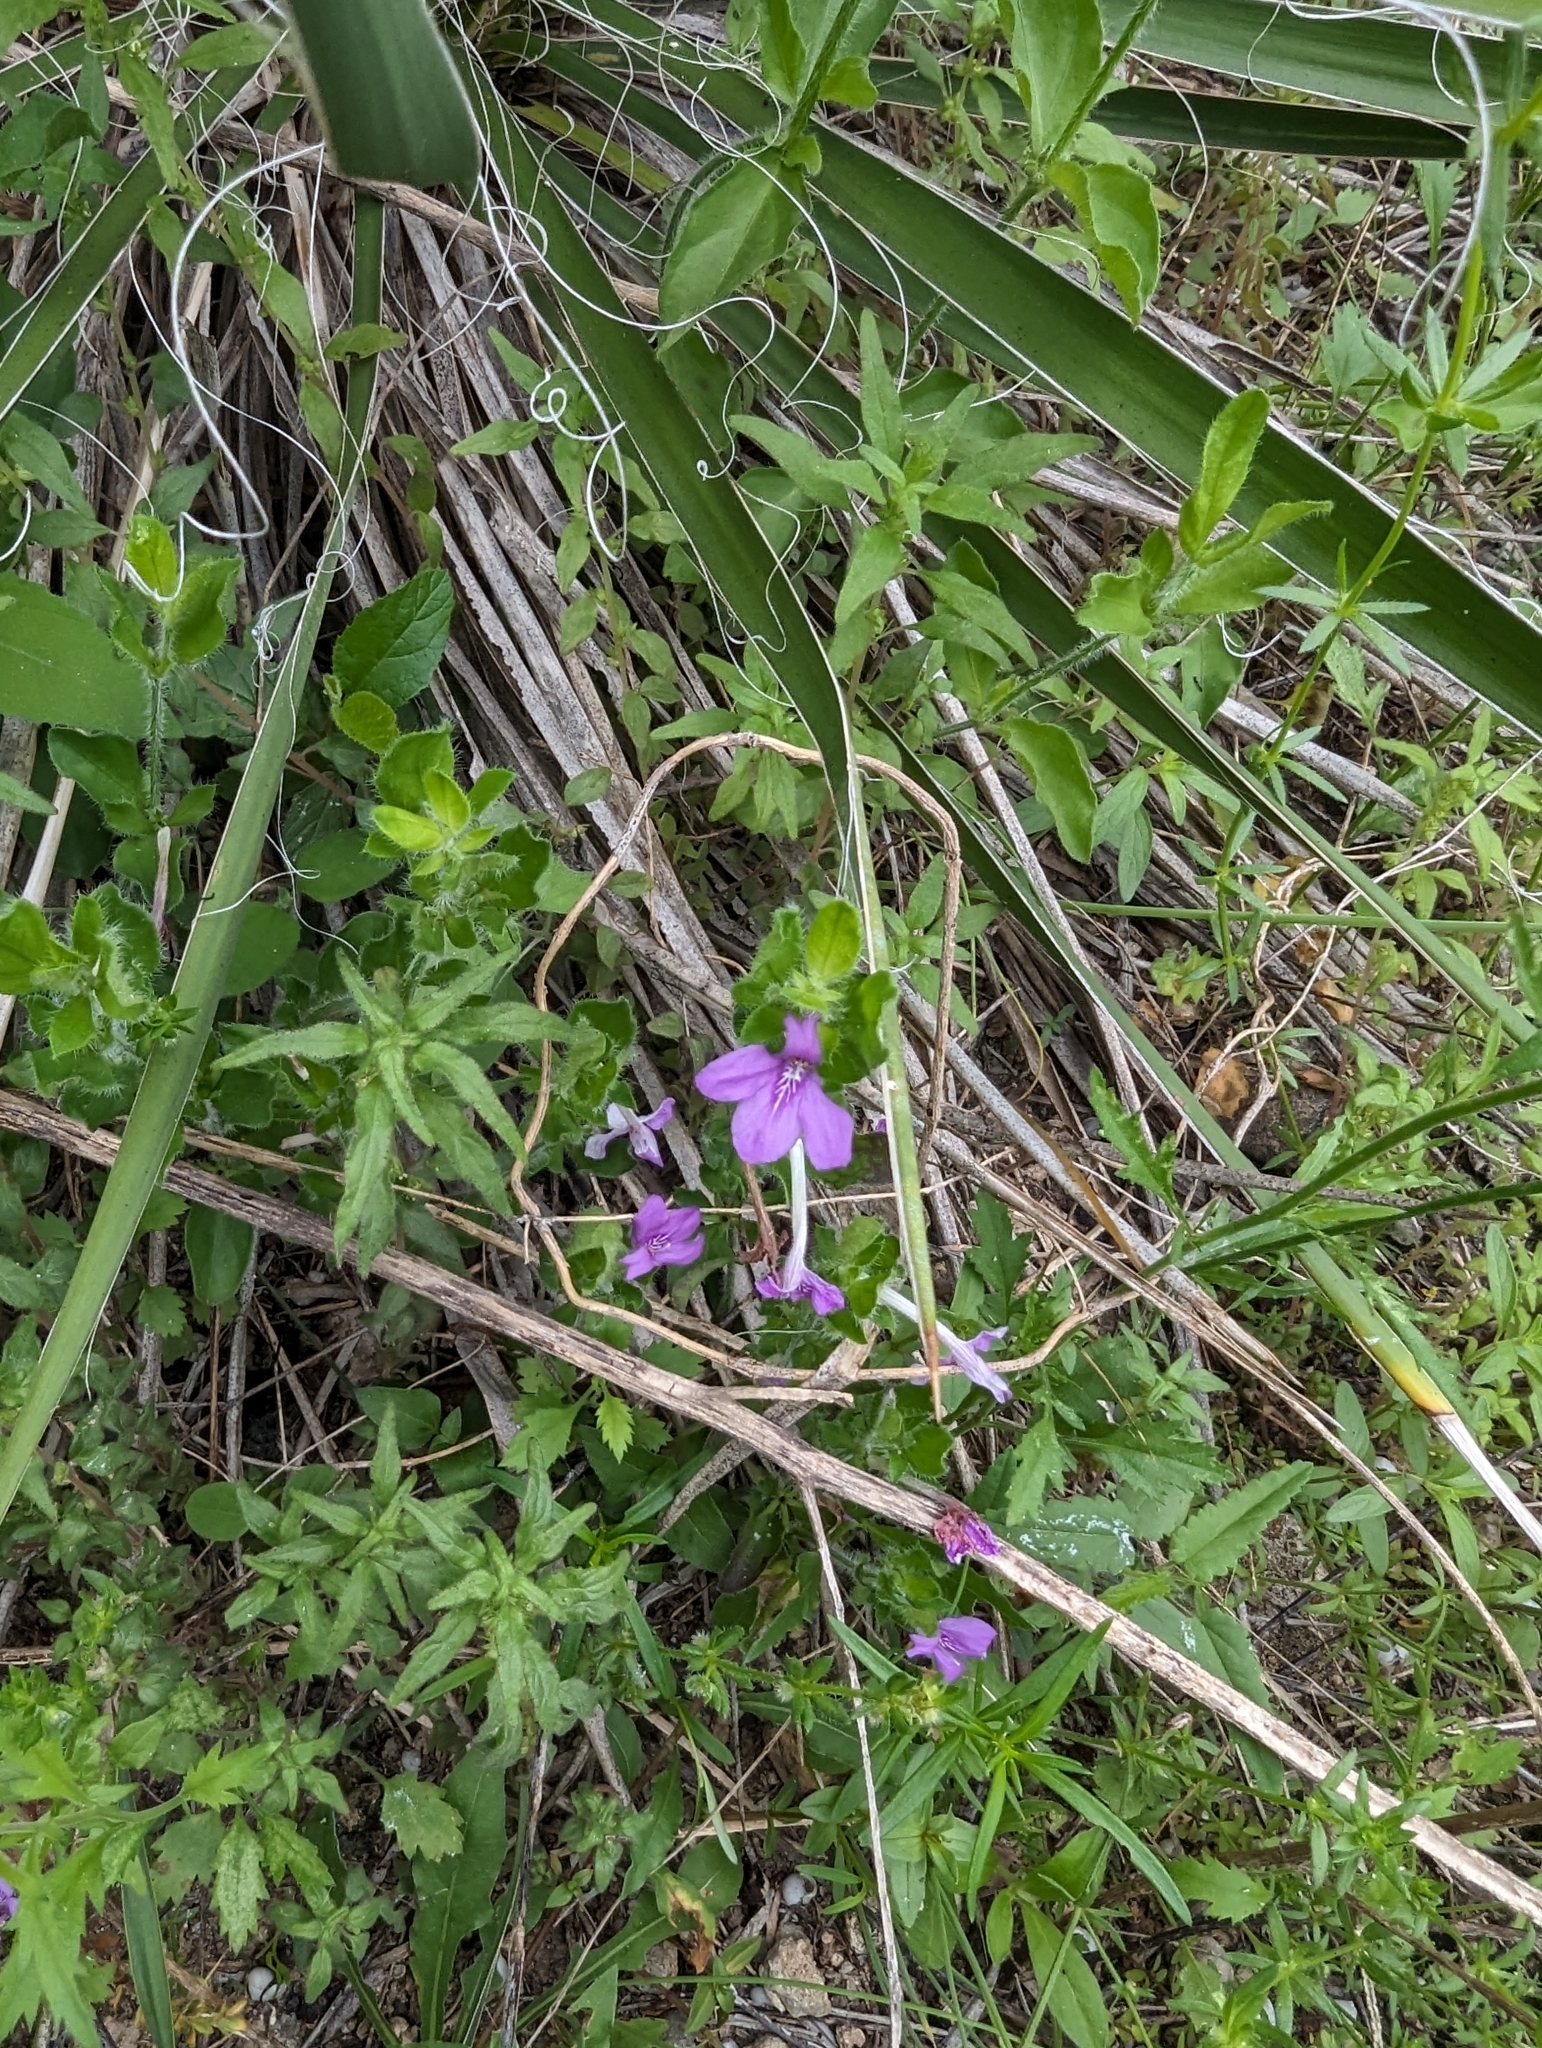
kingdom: Plantae
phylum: Tracheophyta
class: Magnoliopsida
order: Lamiales
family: Acanthaceae
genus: Justicia
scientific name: Justicia pilosella
